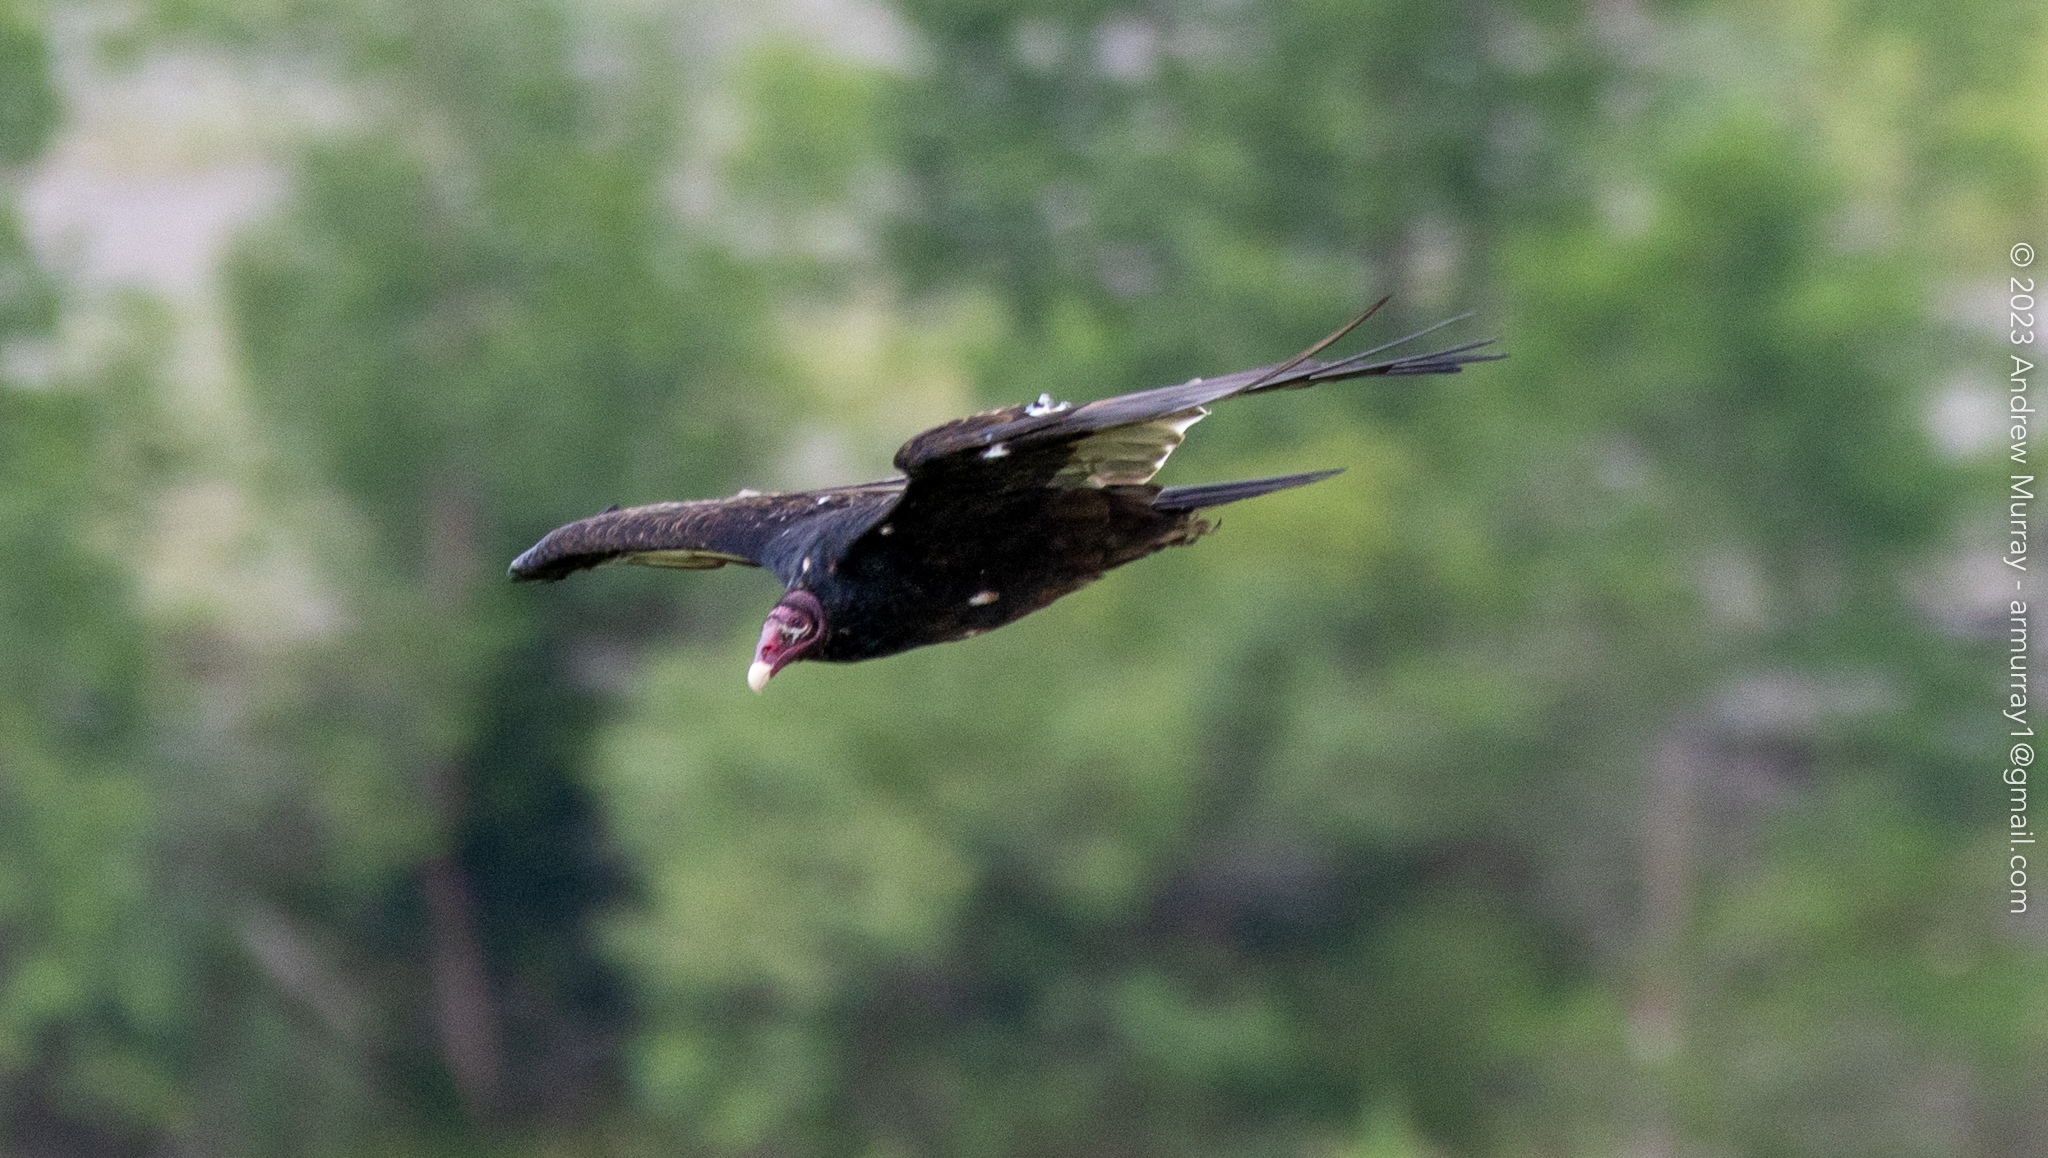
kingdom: Animalia
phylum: Chordata
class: Aves
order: Accipitriformes
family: Cathartidae
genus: Cathartes
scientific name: Cathartes aura
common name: Turkey vulture
